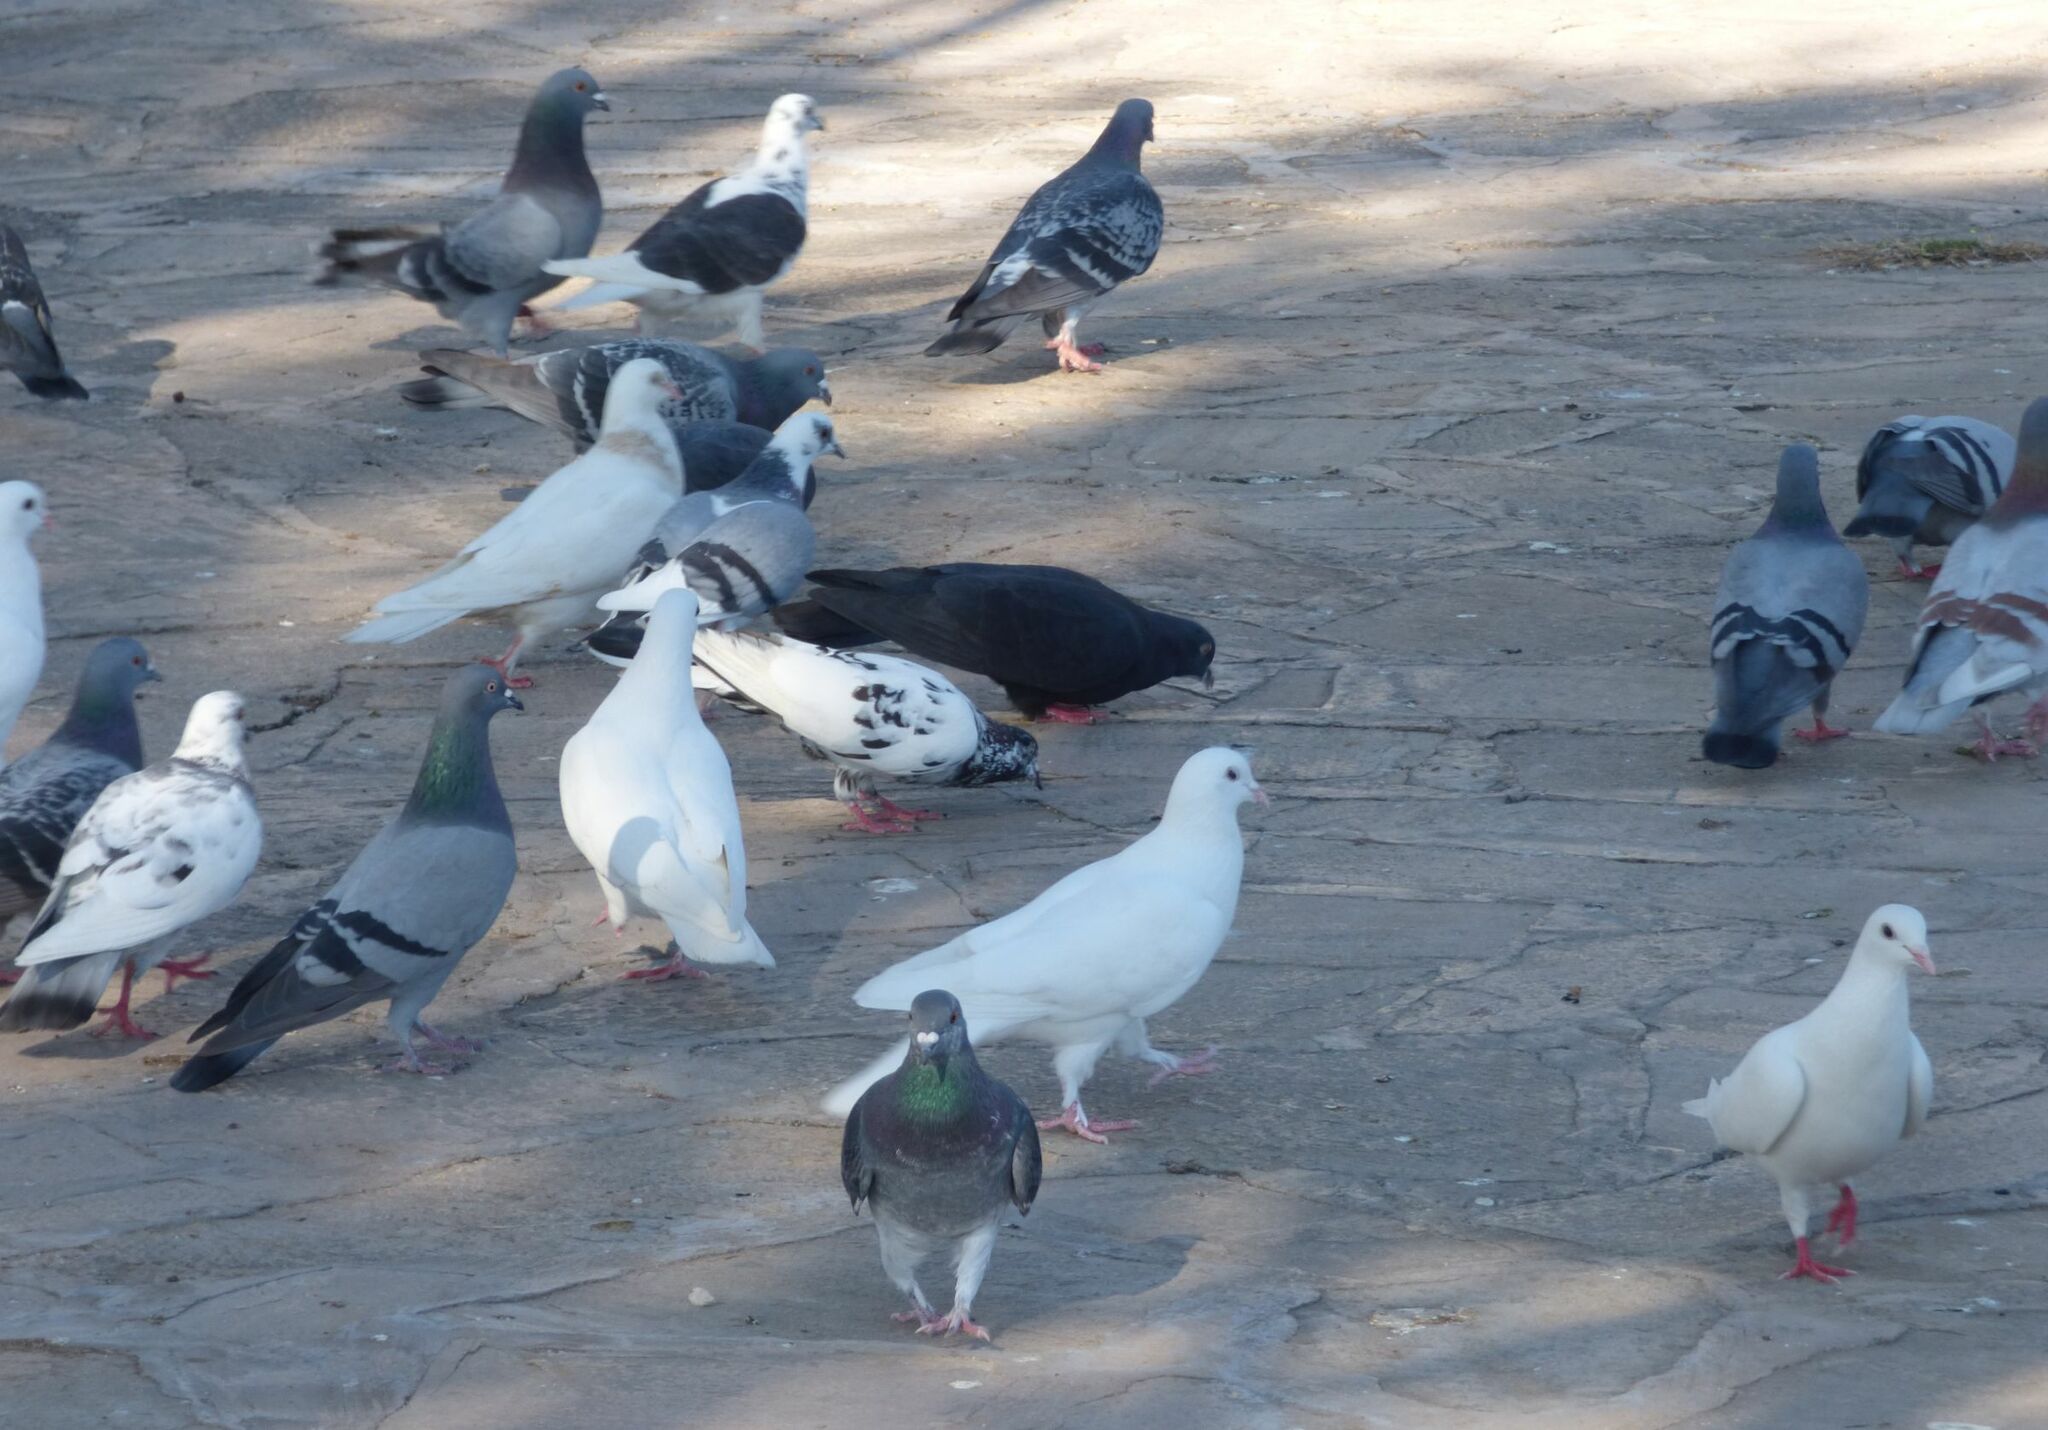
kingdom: Animalia
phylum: Chordata
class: Aves
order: Columbiformes
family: Columbidae
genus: Columba
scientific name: Columba livia
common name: Rock pigeon
